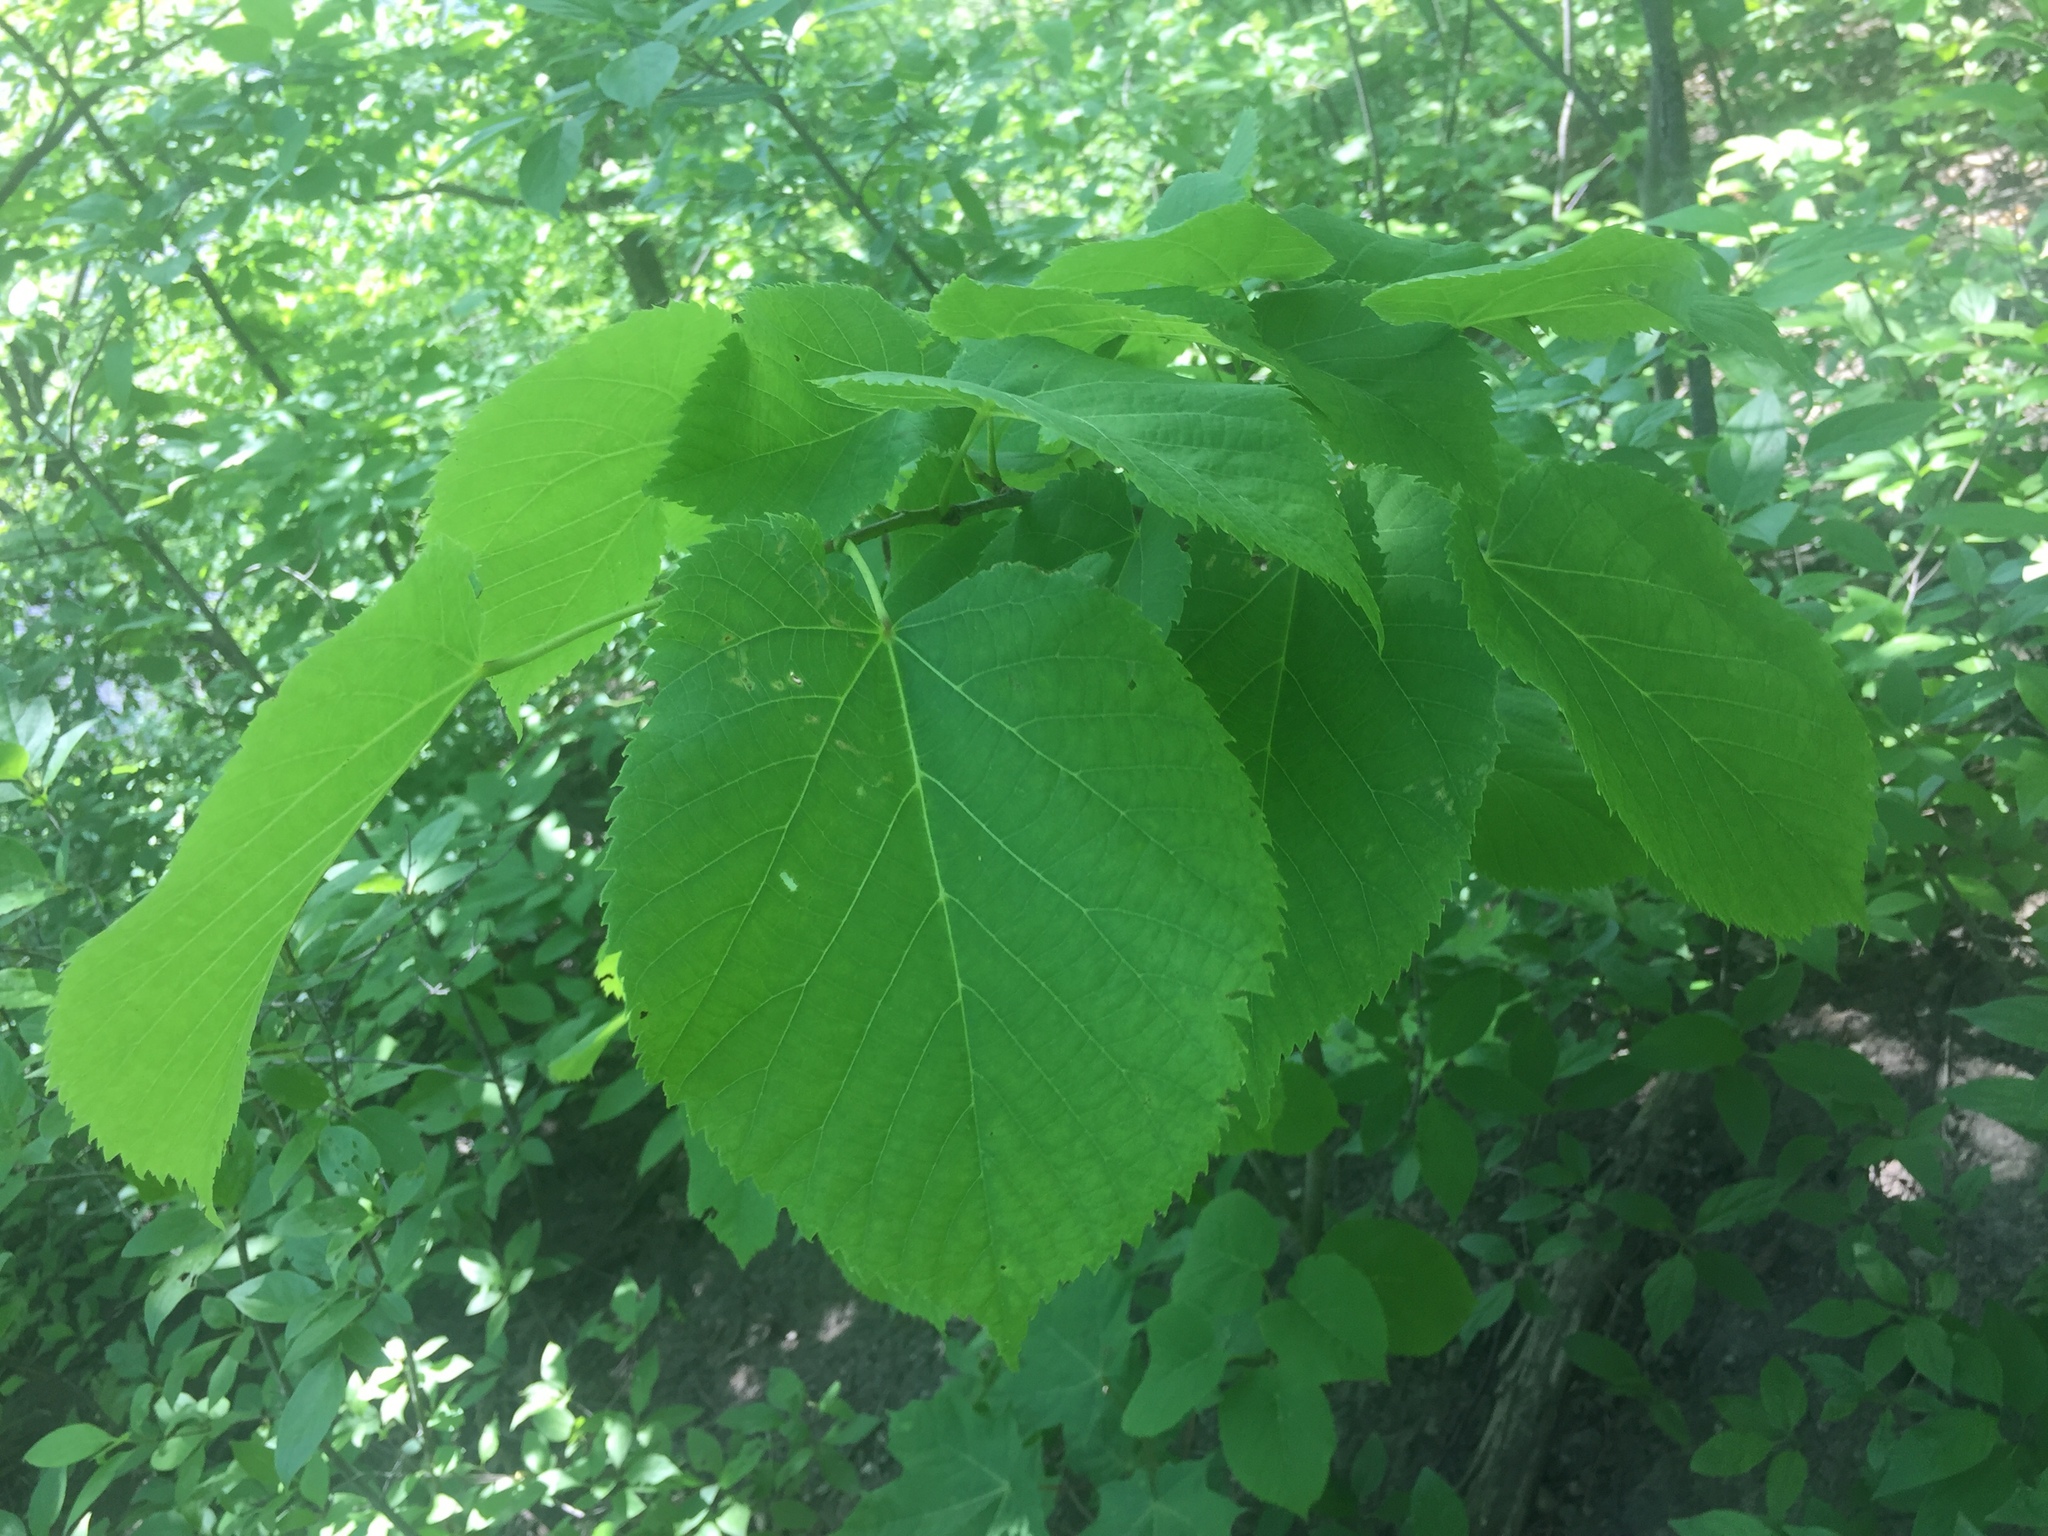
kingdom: Plantae
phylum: Tracheophyta
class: Magnoliopsida
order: Malvales
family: Malvaceae
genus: Tilia
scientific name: Tilia americana
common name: Basswood
